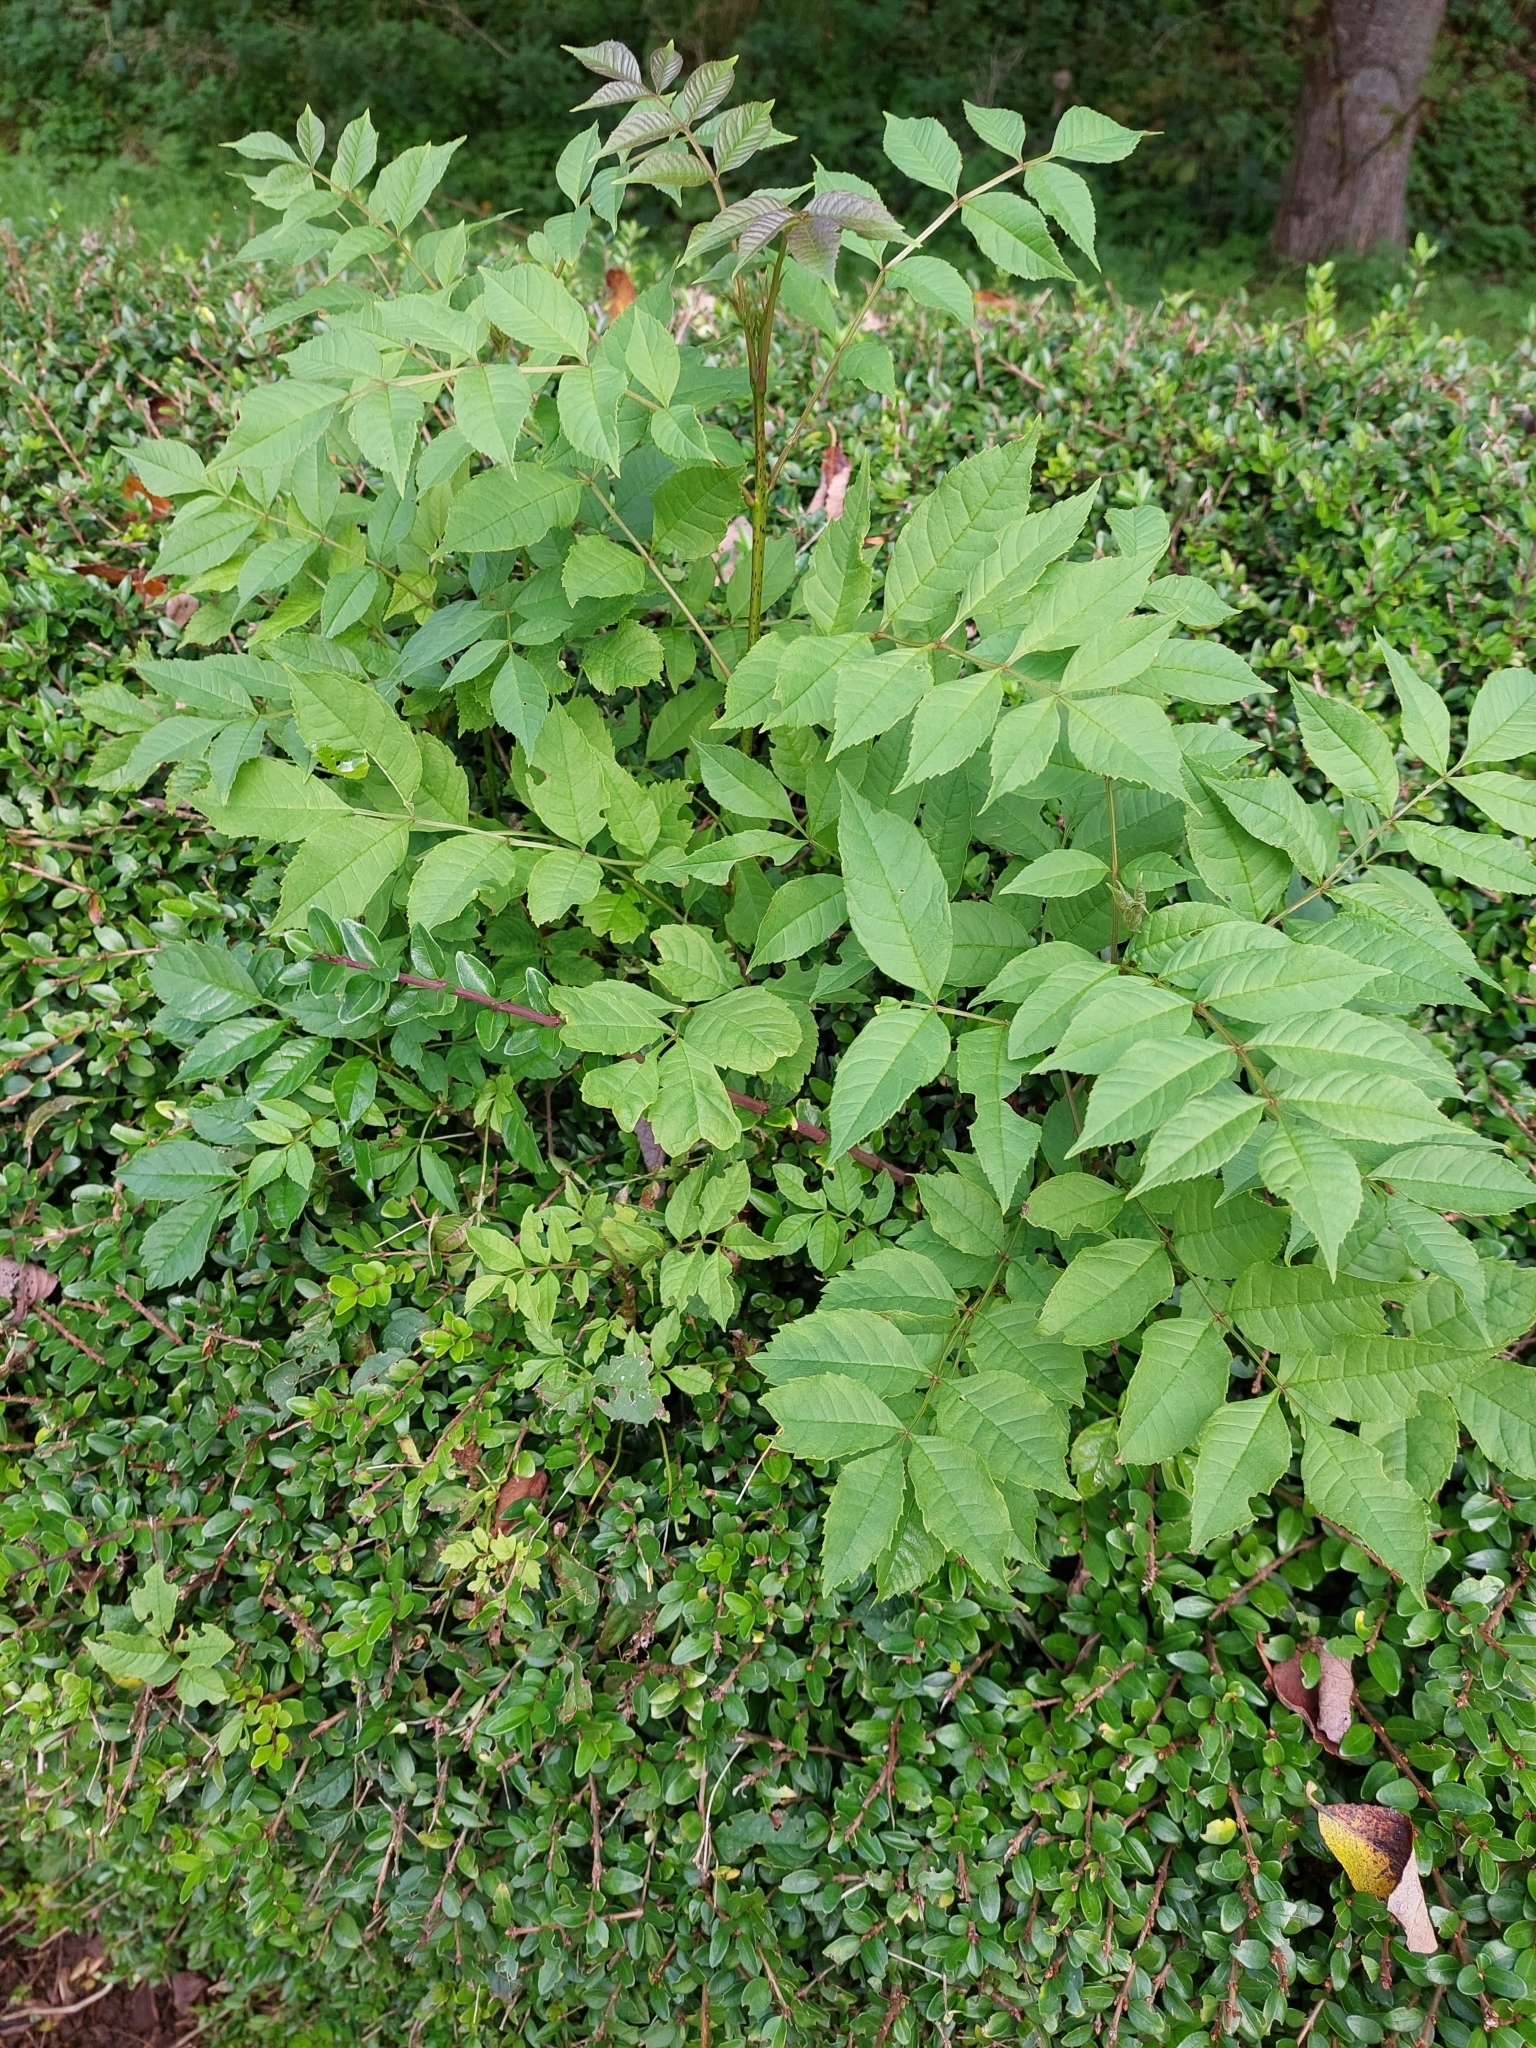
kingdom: Plantae
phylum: Tracheophyta
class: Magnoliopsida
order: Lamiales
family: Oleaceae
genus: Fraxinus
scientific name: Fraxinus excelsior
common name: European ash
